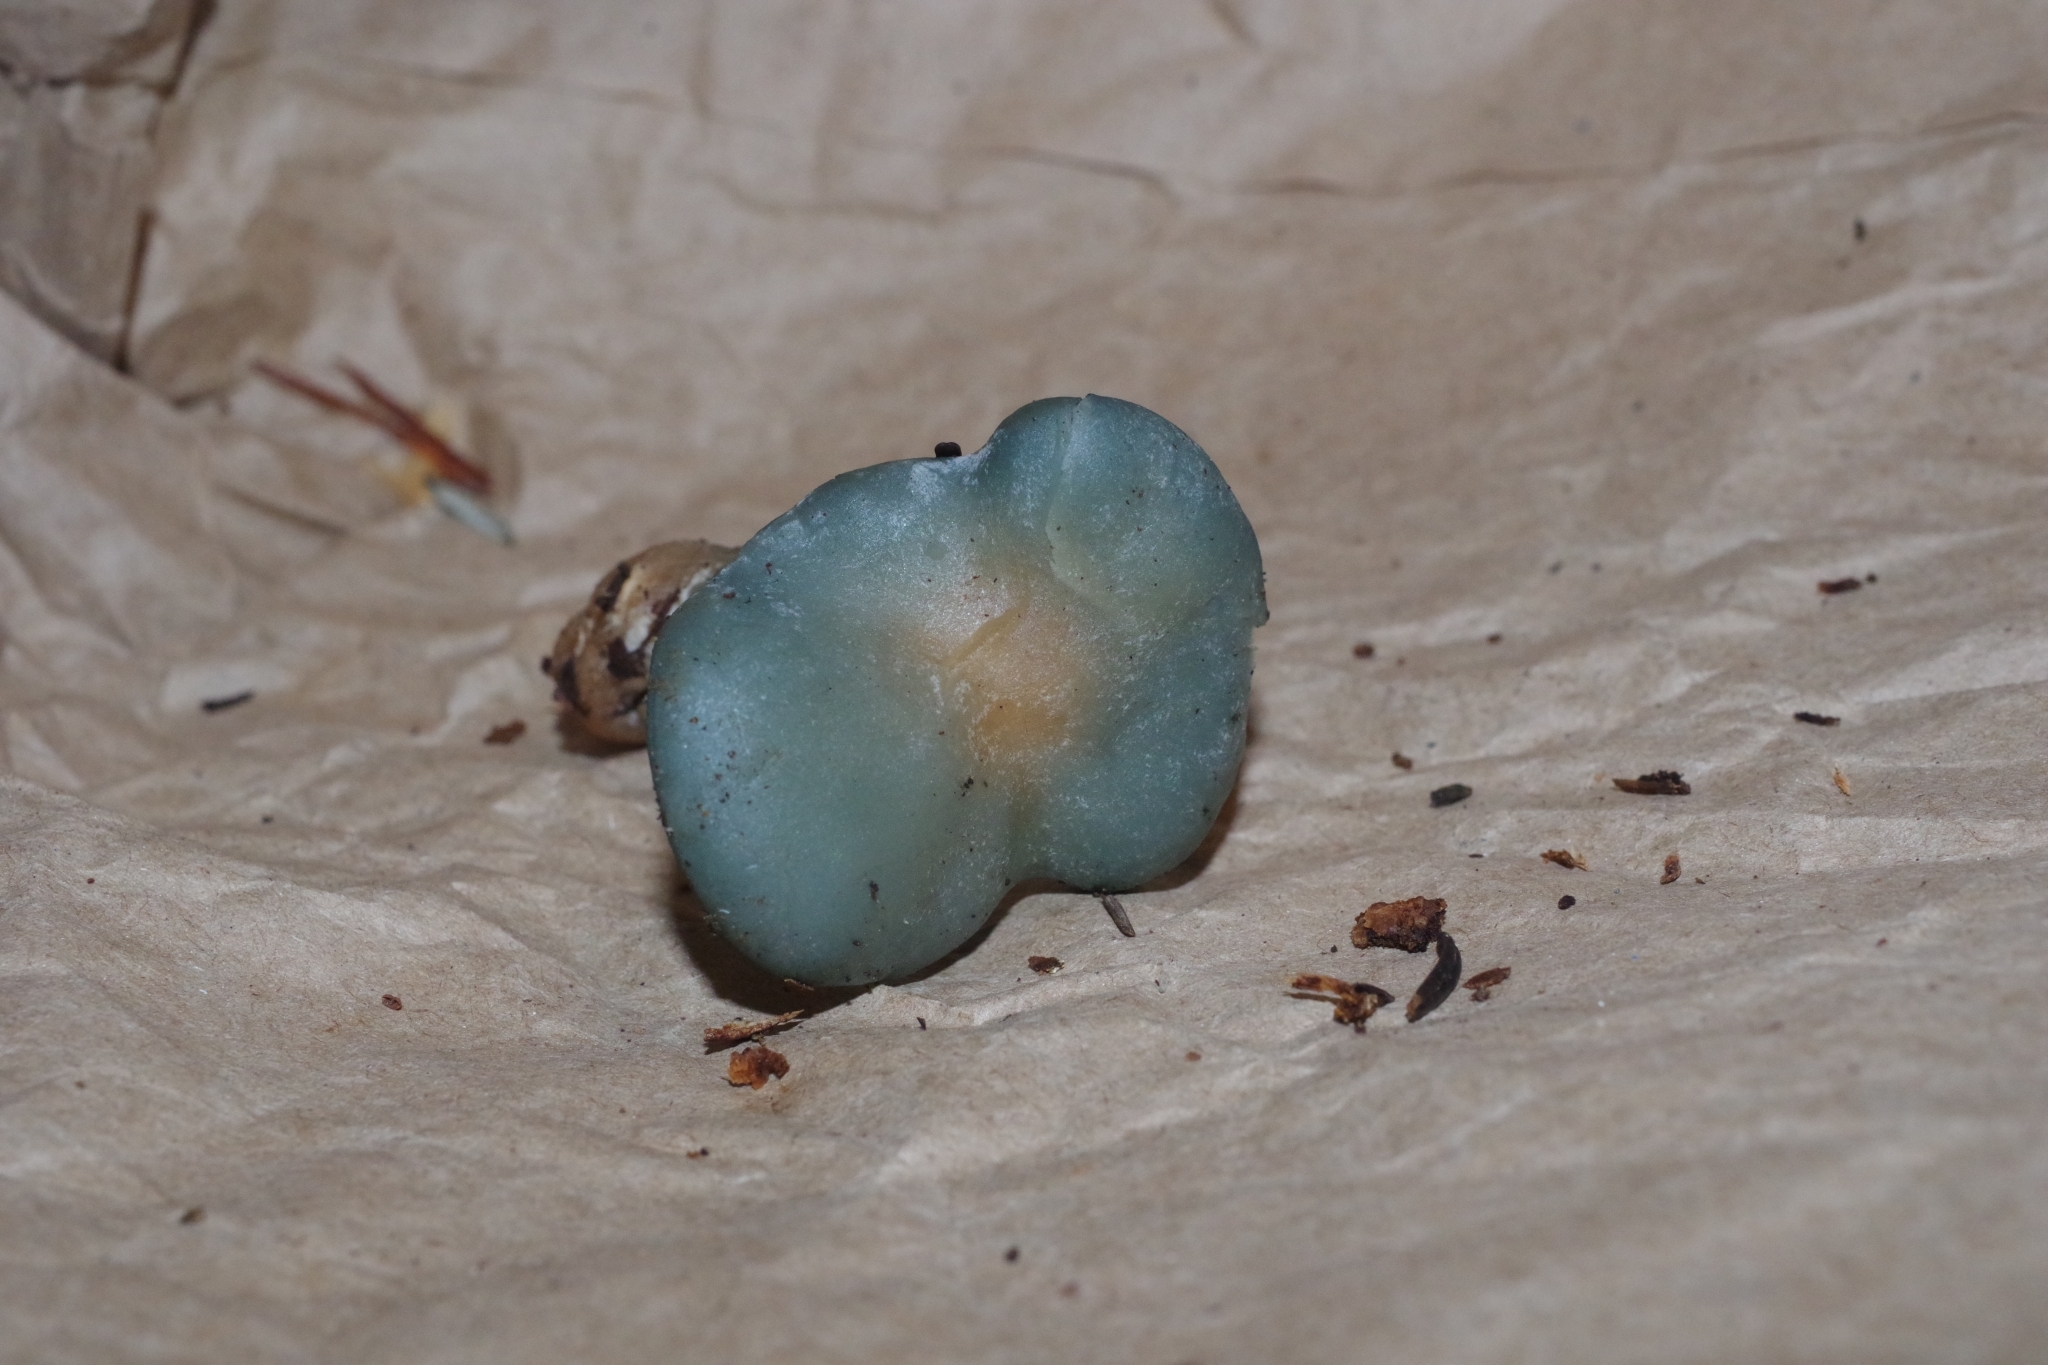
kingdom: Fungi
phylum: Basidiomycota
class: Agaricomycetes
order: Agaricales
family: Tricholomataceae
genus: Collybia
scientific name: Collybia
